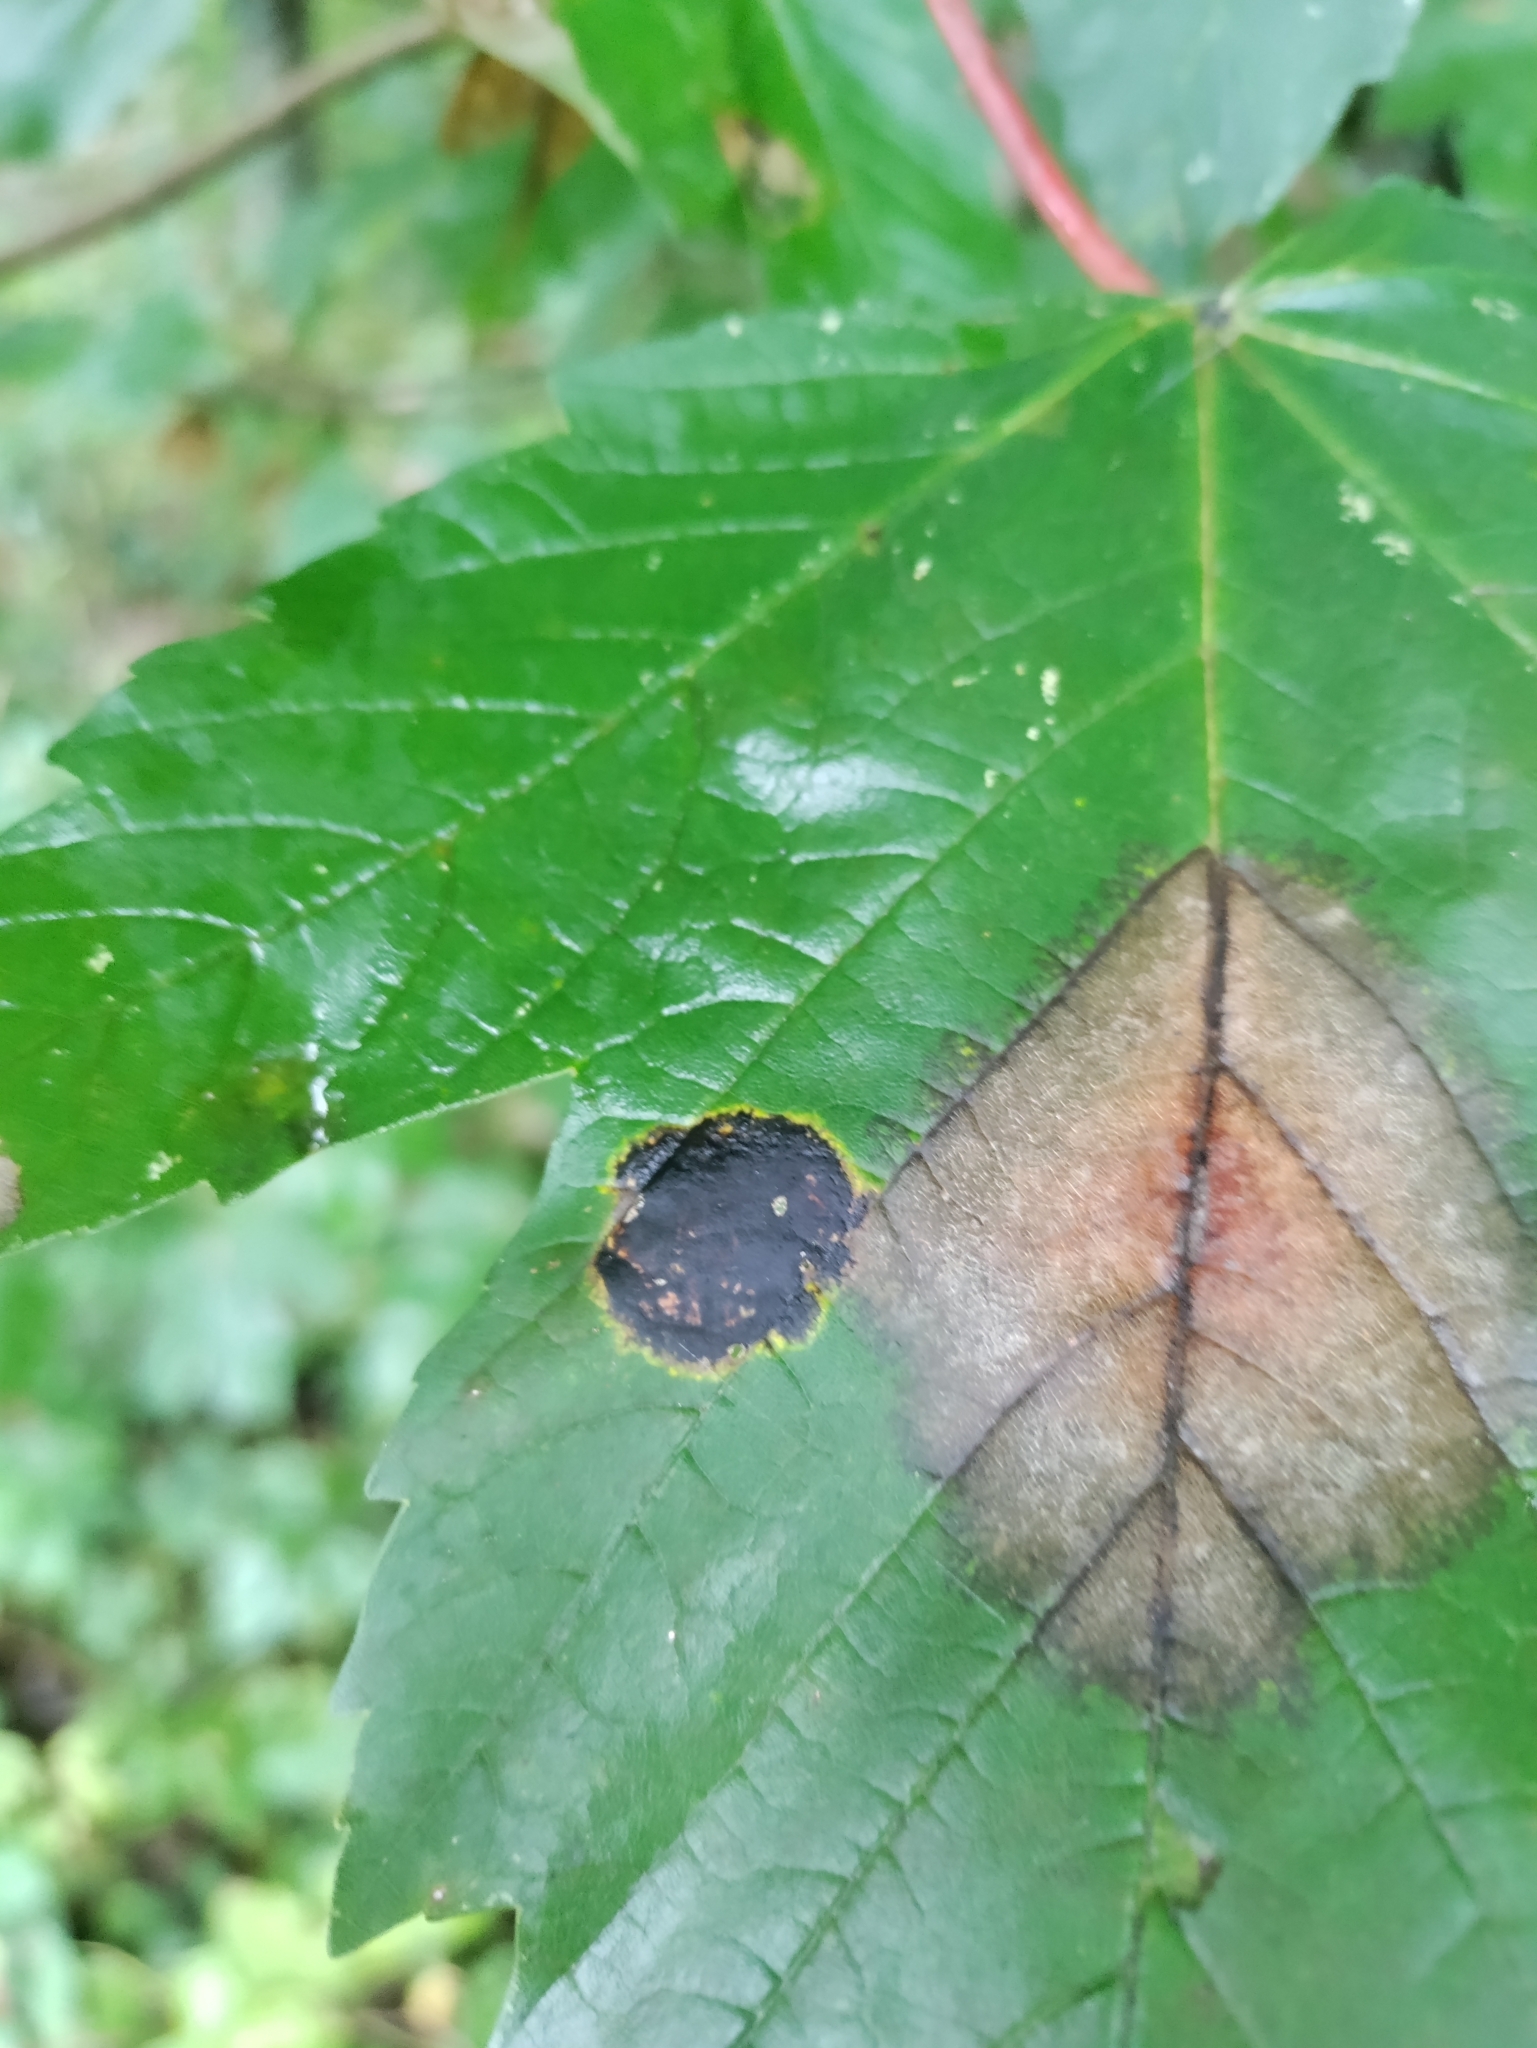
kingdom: Fungi
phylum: Ascomycota
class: Leotiomycetes
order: Rhytismatales
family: Rhytismataceae
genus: Rhytisma
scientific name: Rhytisma acerinum
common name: European tar spot
